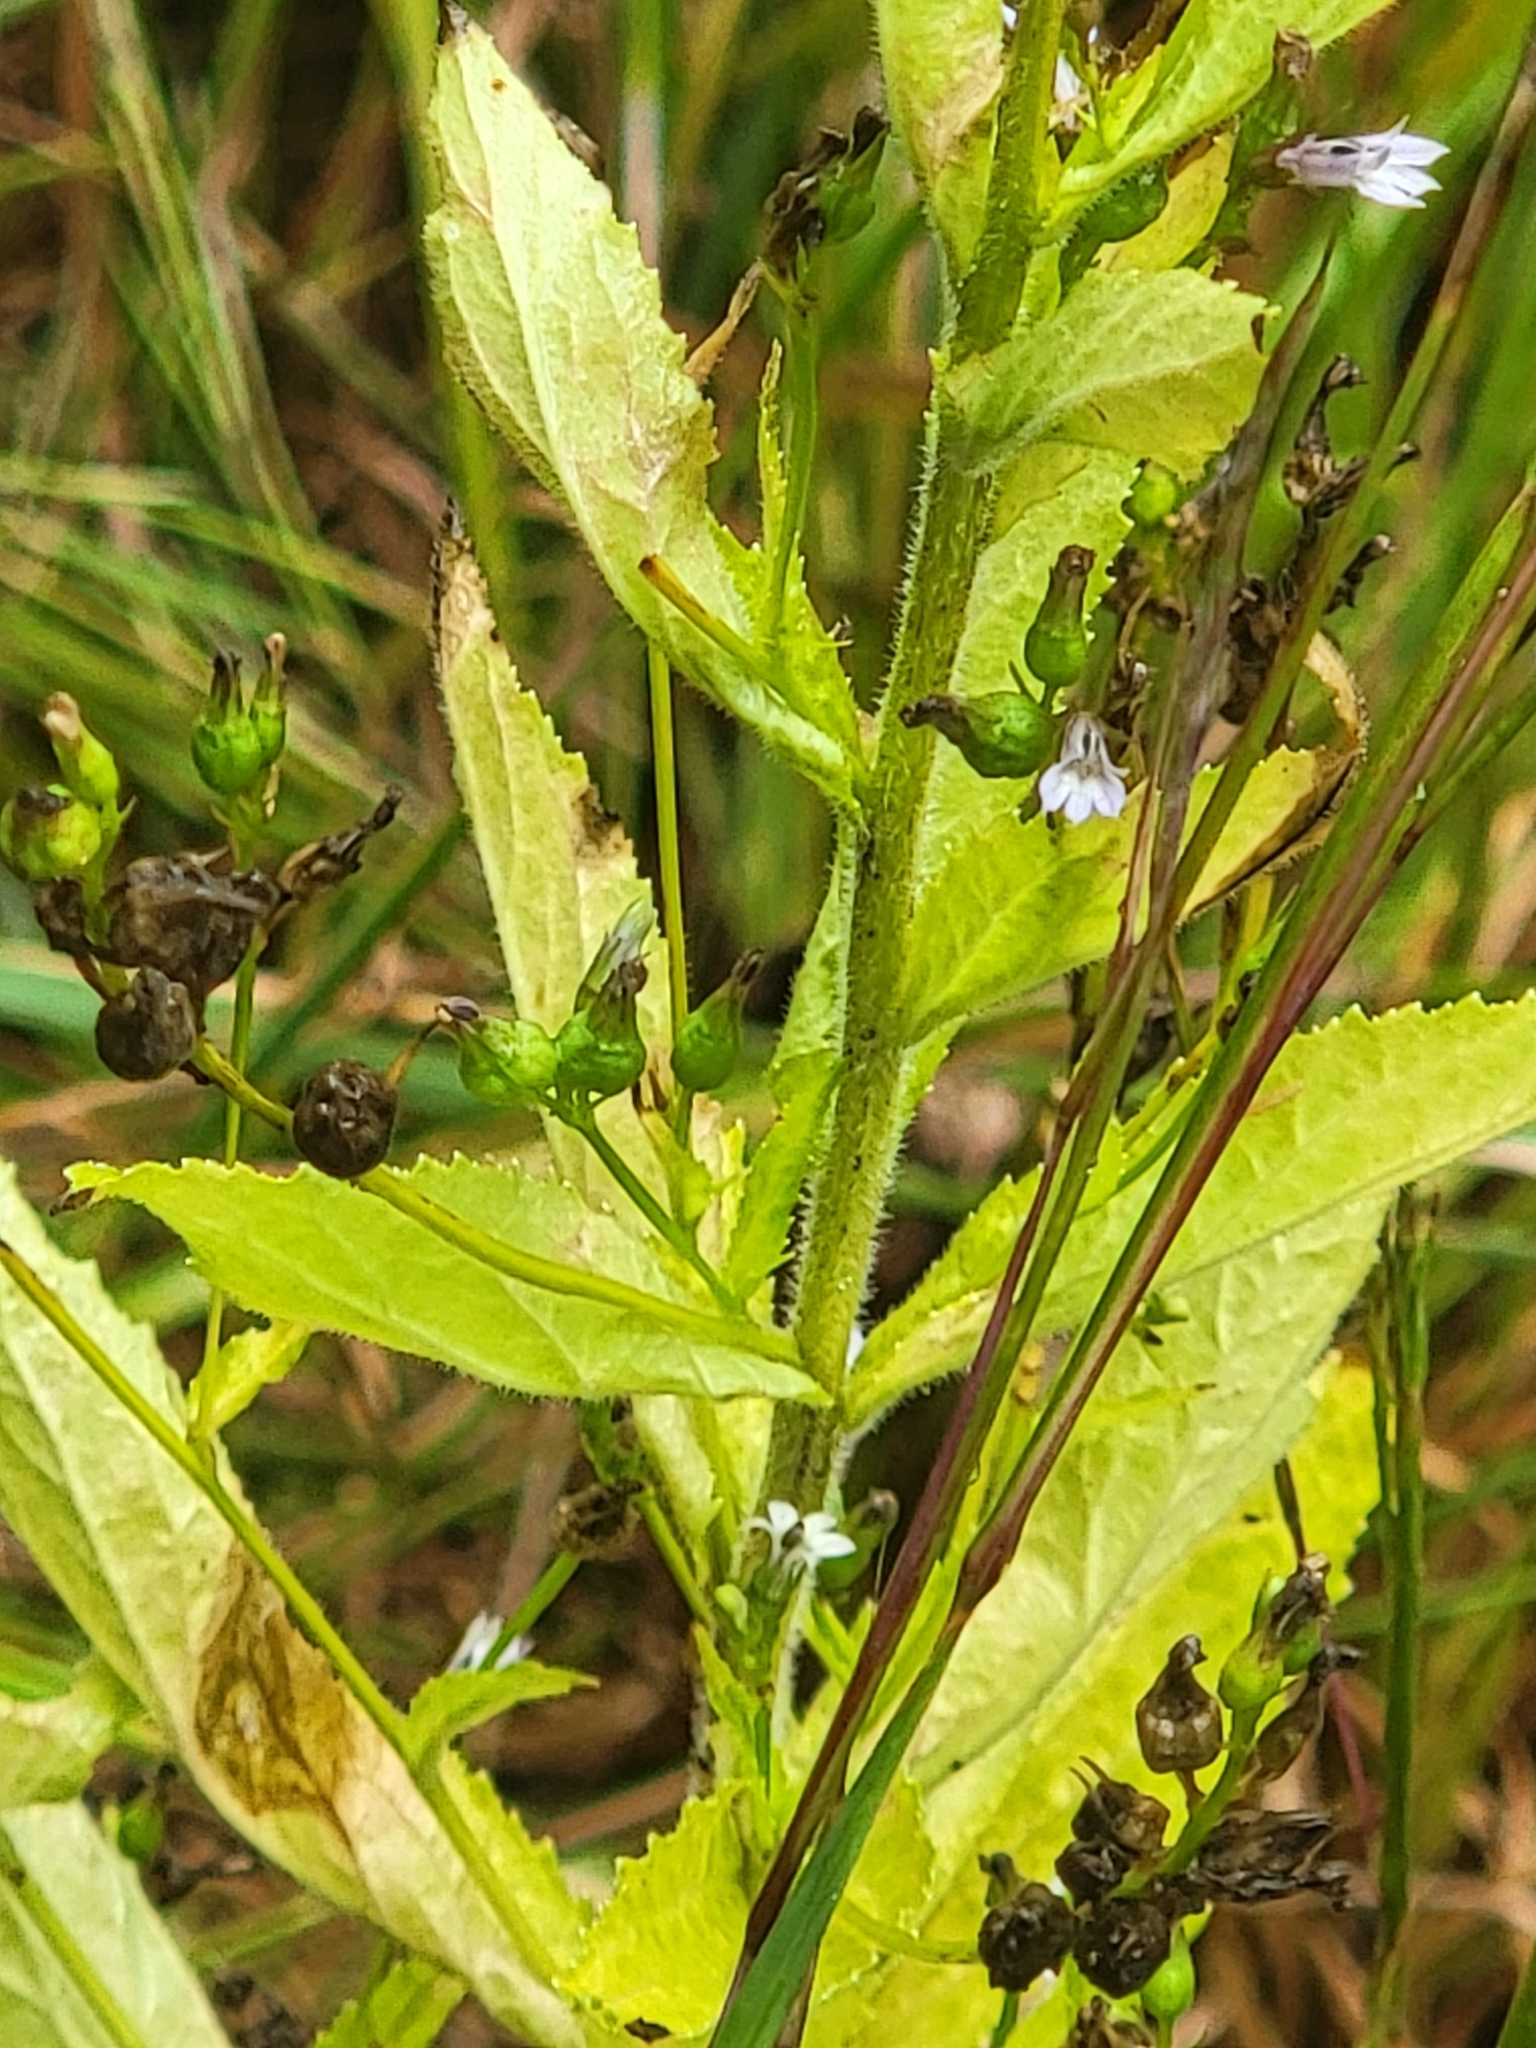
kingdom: Plantae
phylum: Tracheophyta
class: Magnoliopsida
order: Asterales
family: Campanulaceae
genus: Lobelia
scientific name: Lobelia inflata
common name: Indian tobacco
